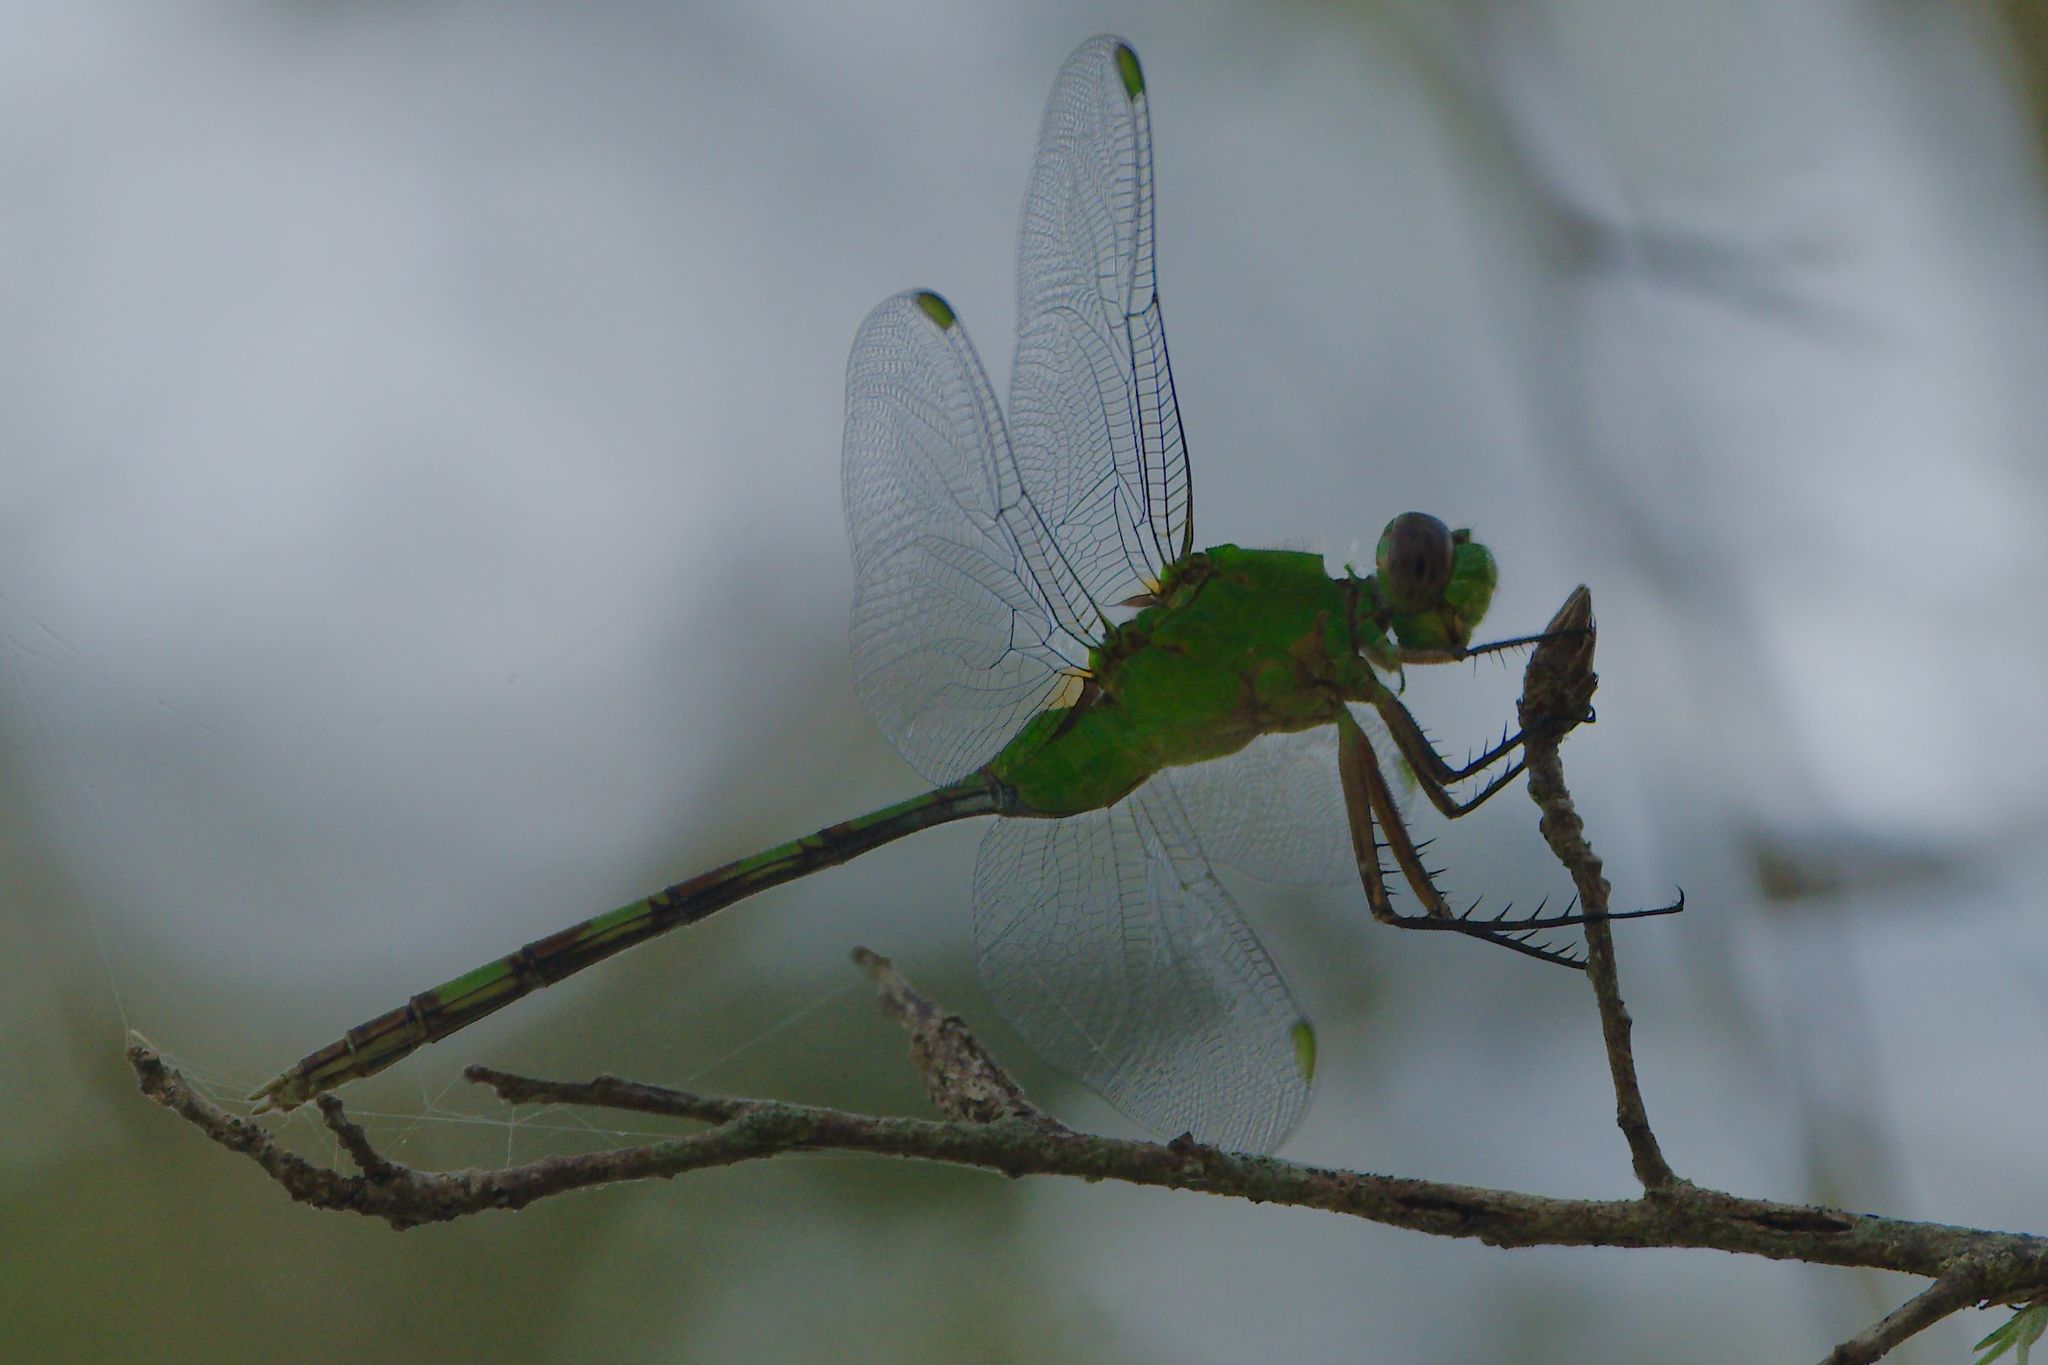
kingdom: Animalia
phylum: Arthropoda
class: Insecta
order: Odonata
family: Libellulidae
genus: Erythemis
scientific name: Erythemis vesiculosa
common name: Great pondhawk
